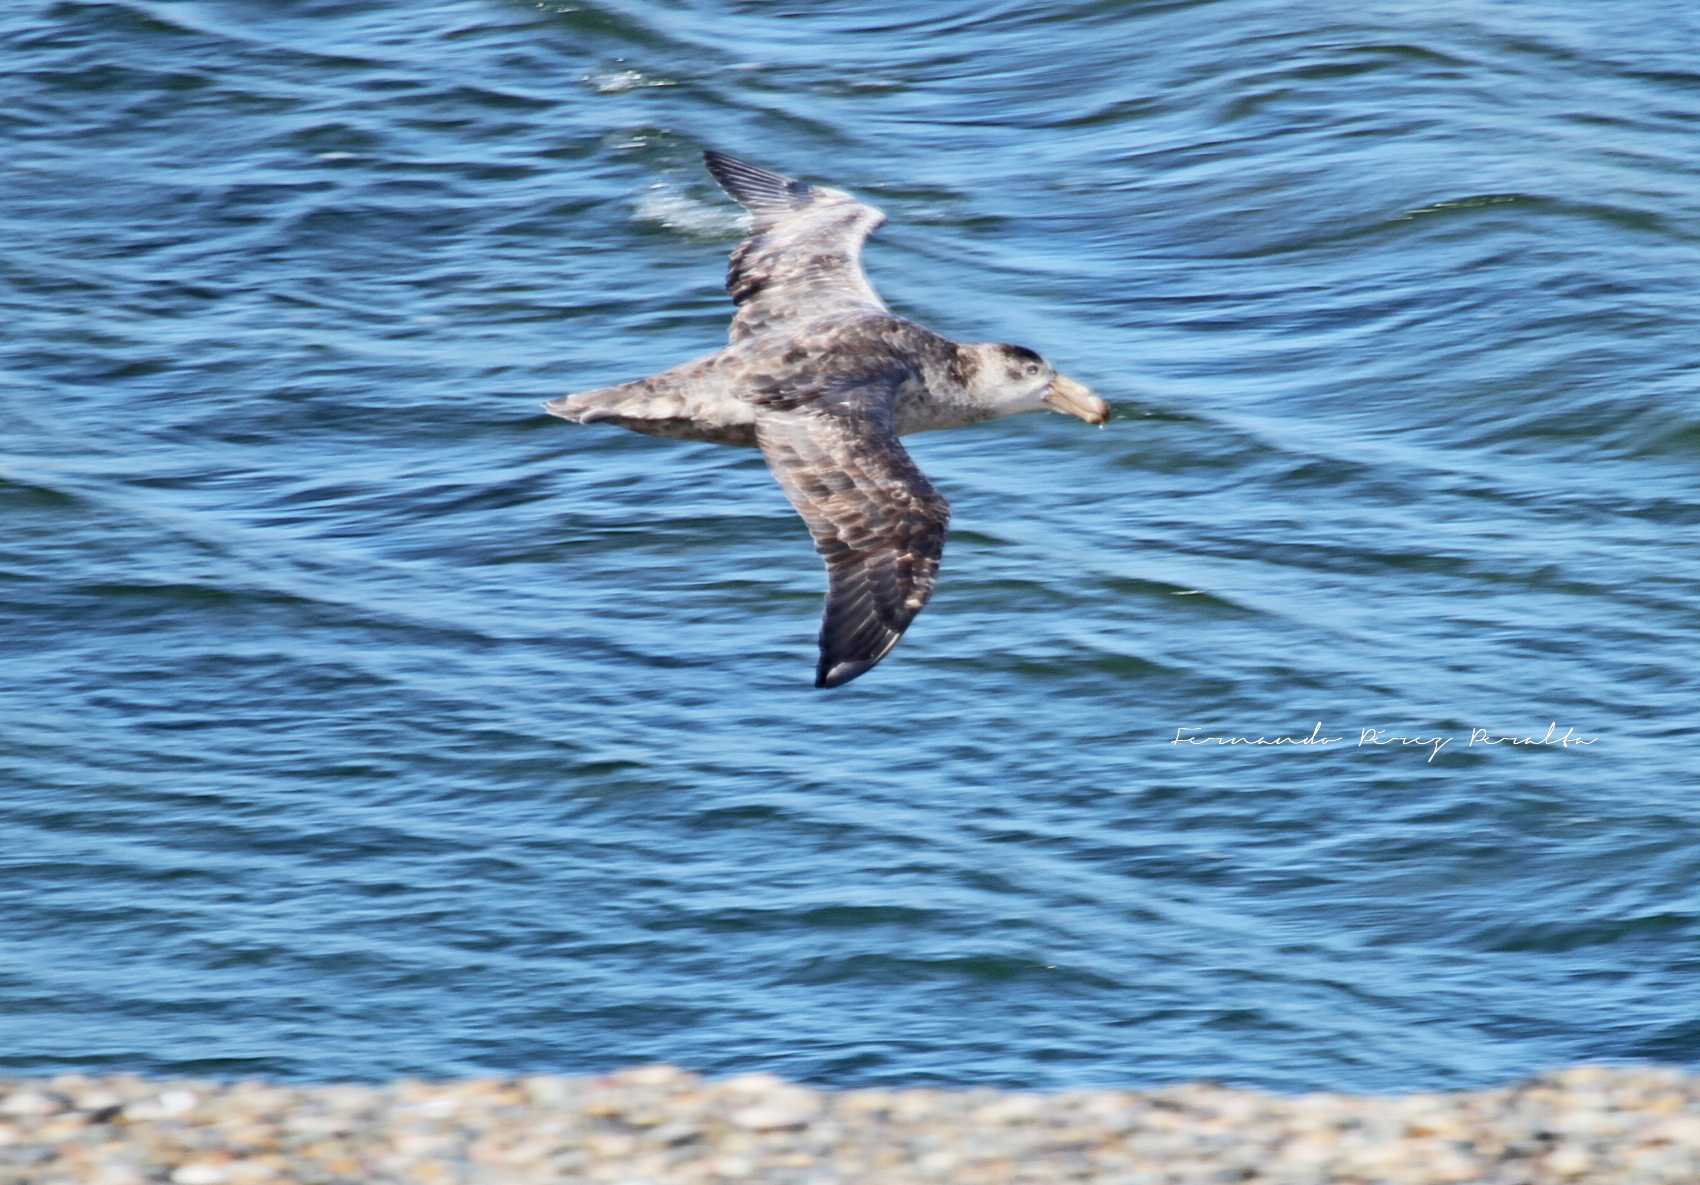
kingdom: Animalia
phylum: Chordata
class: Aves
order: Procellariiformes
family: Procellariidae
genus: Macronectes
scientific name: Macronectes halli
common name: Northern giant petrel
